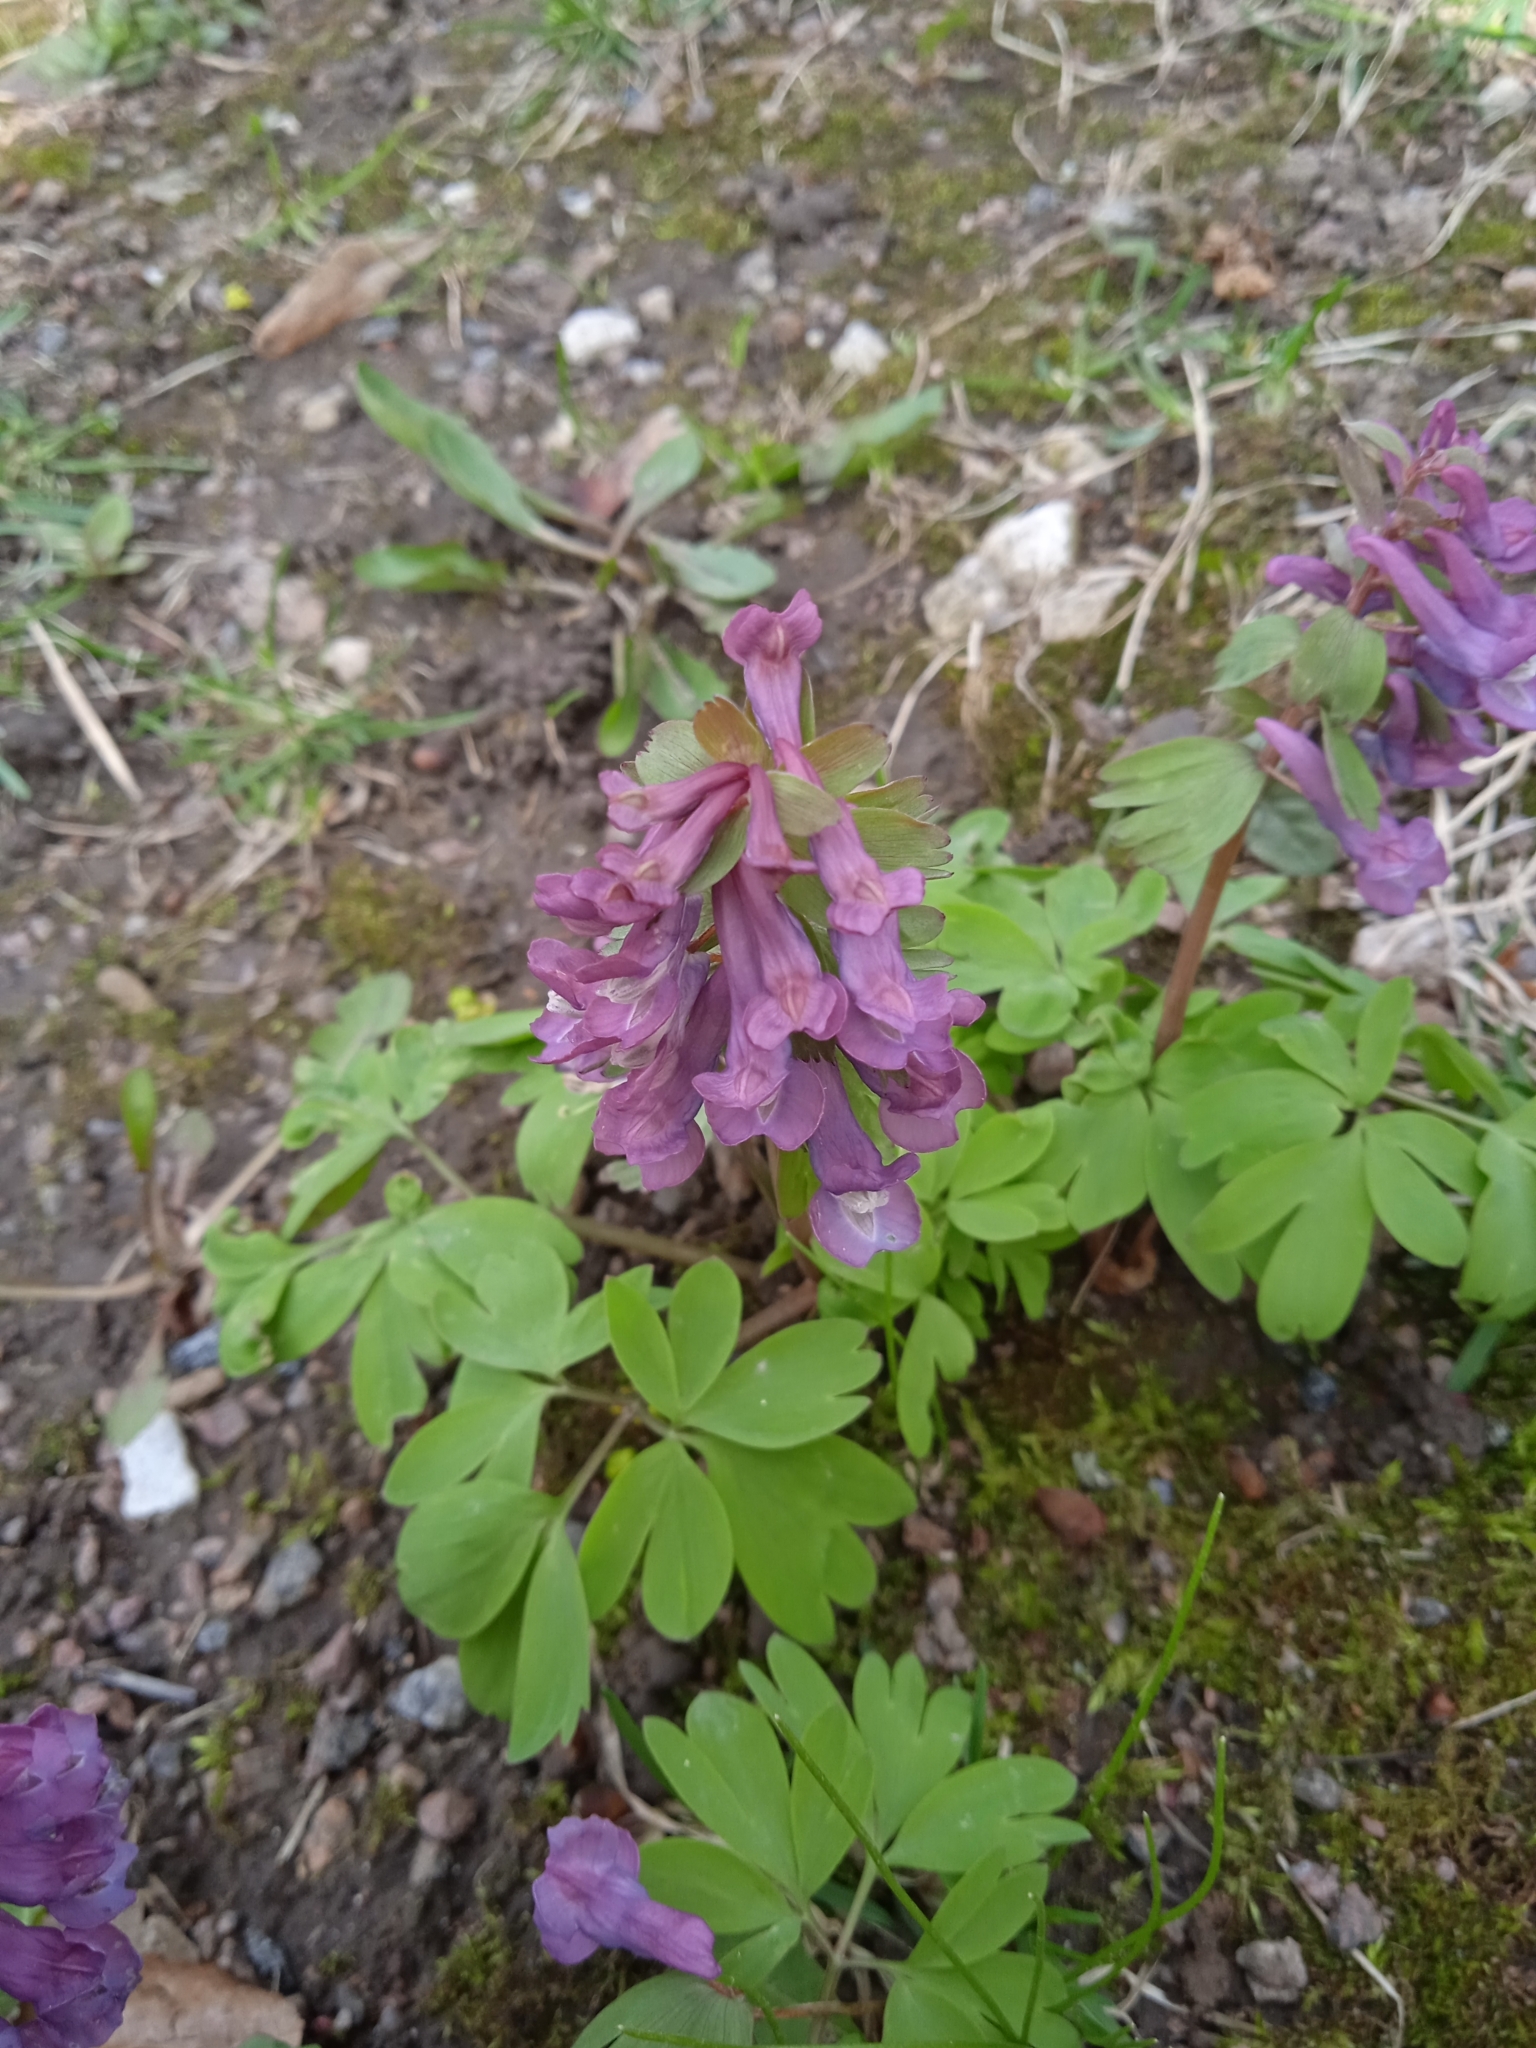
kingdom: Plantae
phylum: Tracheophyta
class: Magnoliopsida
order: Ranunculales
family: Papaveraceae
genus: Corydalis
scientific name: Corydalis solida
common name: Bird-in-a-bush
